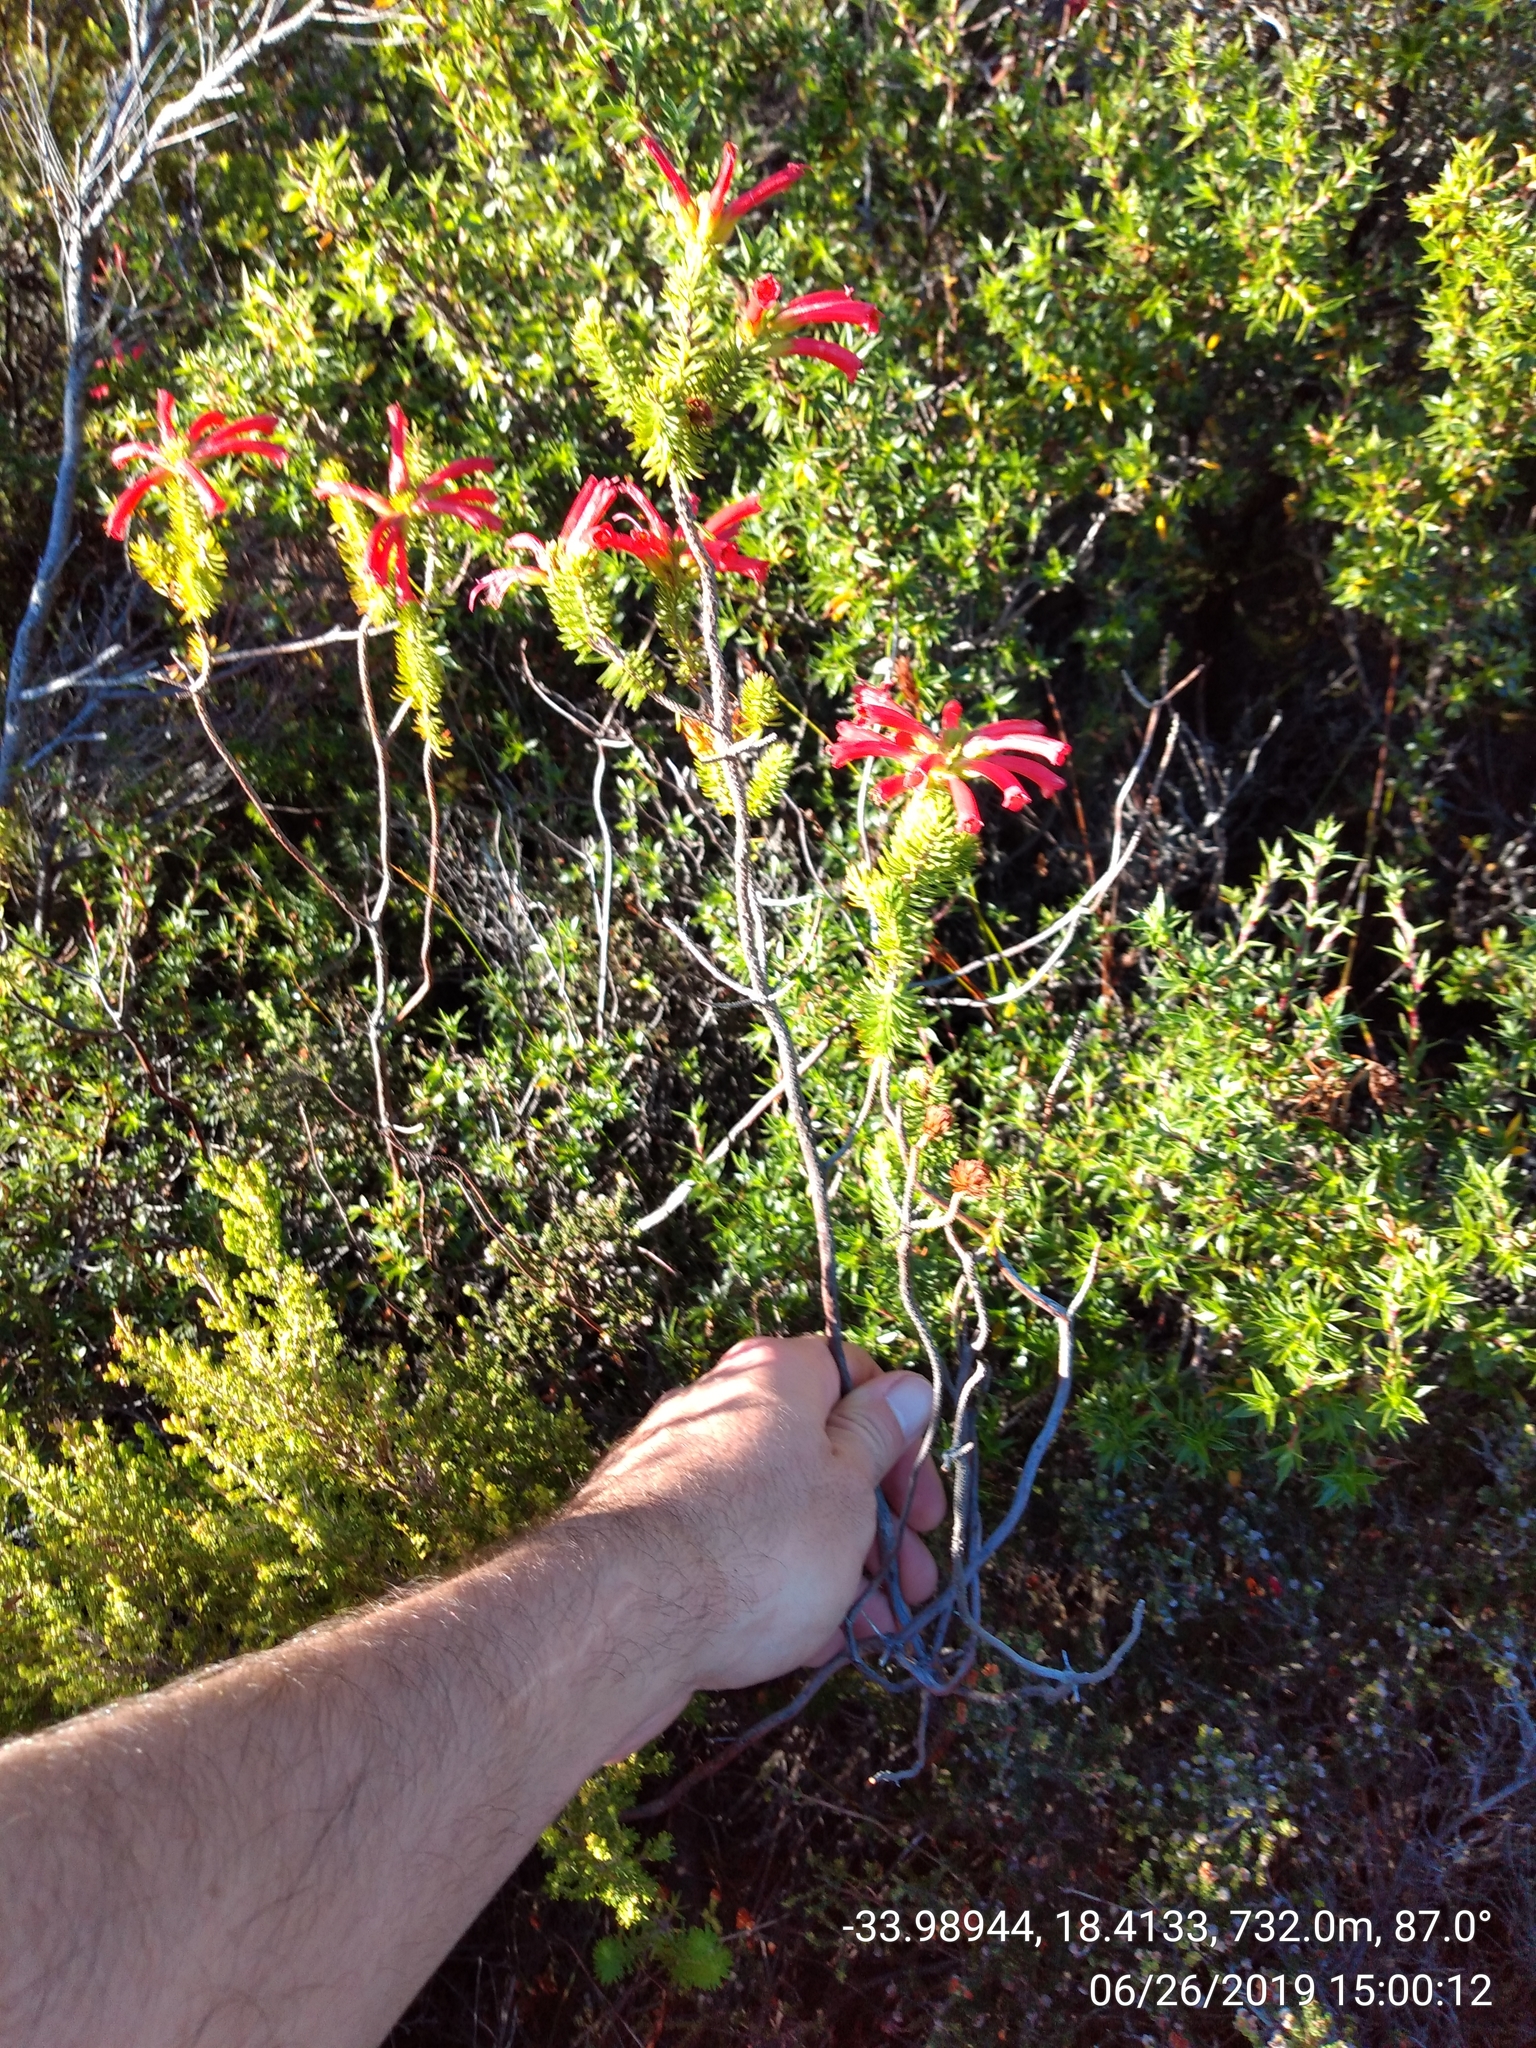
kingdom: Plantae
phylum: Tracheophyta
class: Magnoliopsida
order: Ericales
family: Ericaceae
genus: Erica
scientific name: Erica abietina
